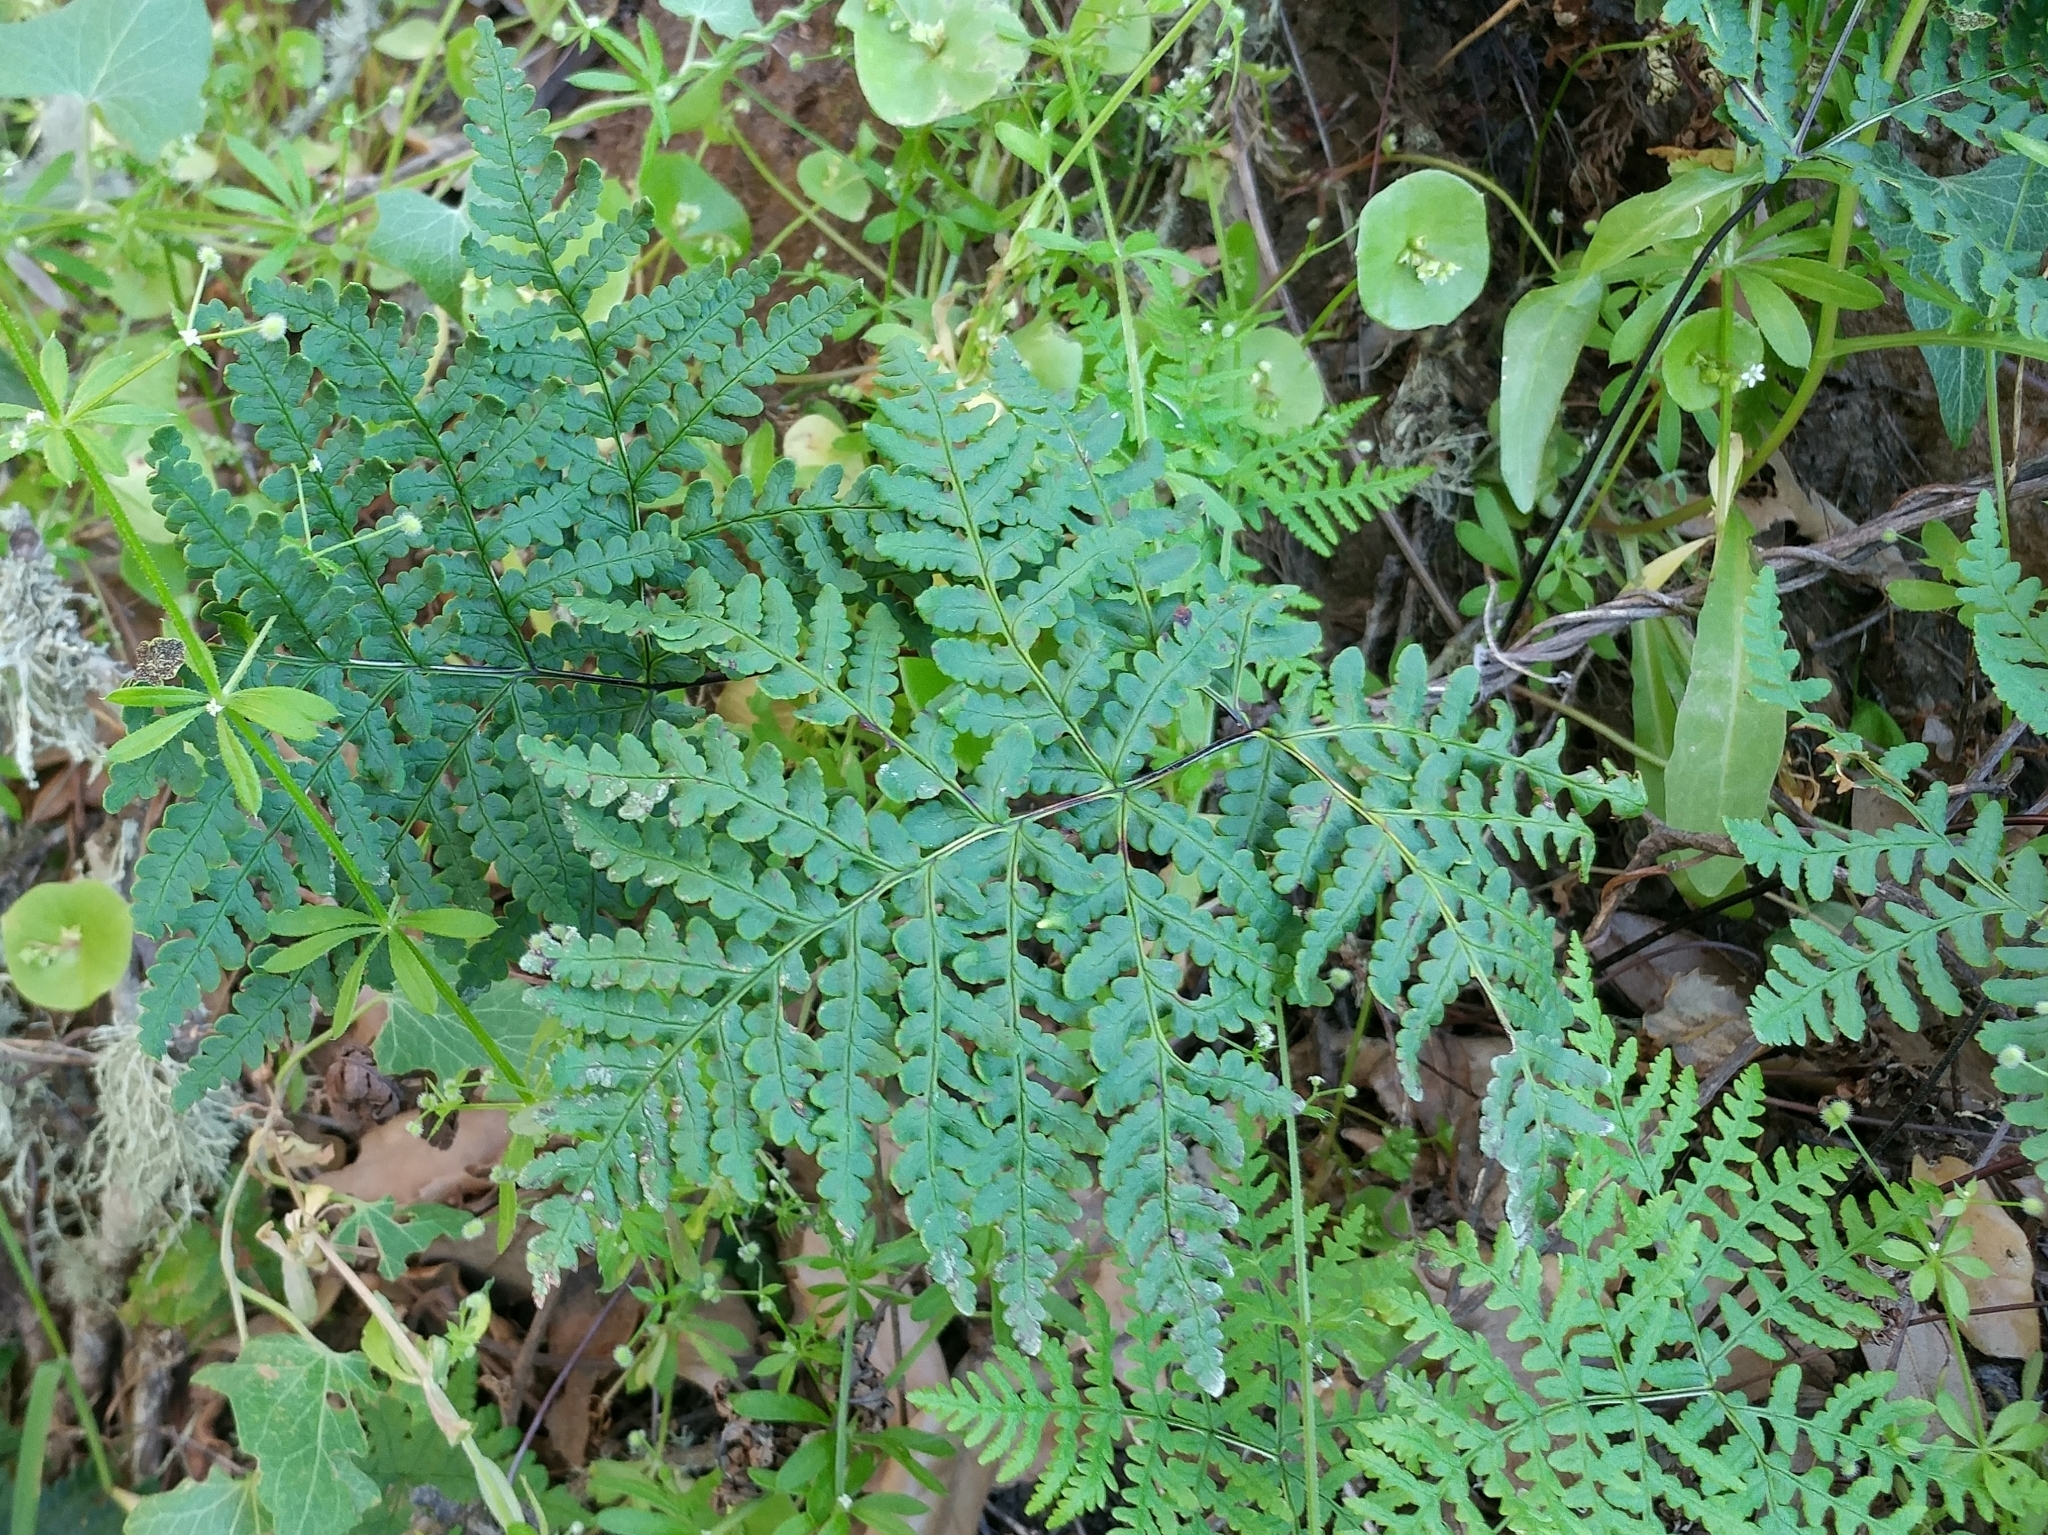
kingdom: Plantae
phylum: Tracheophyta
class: Polypodiopsida
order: Polypodiales
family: Pteridaceae
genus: Pentagramma
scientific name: Pentagramma triangularis
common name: Gold fern
